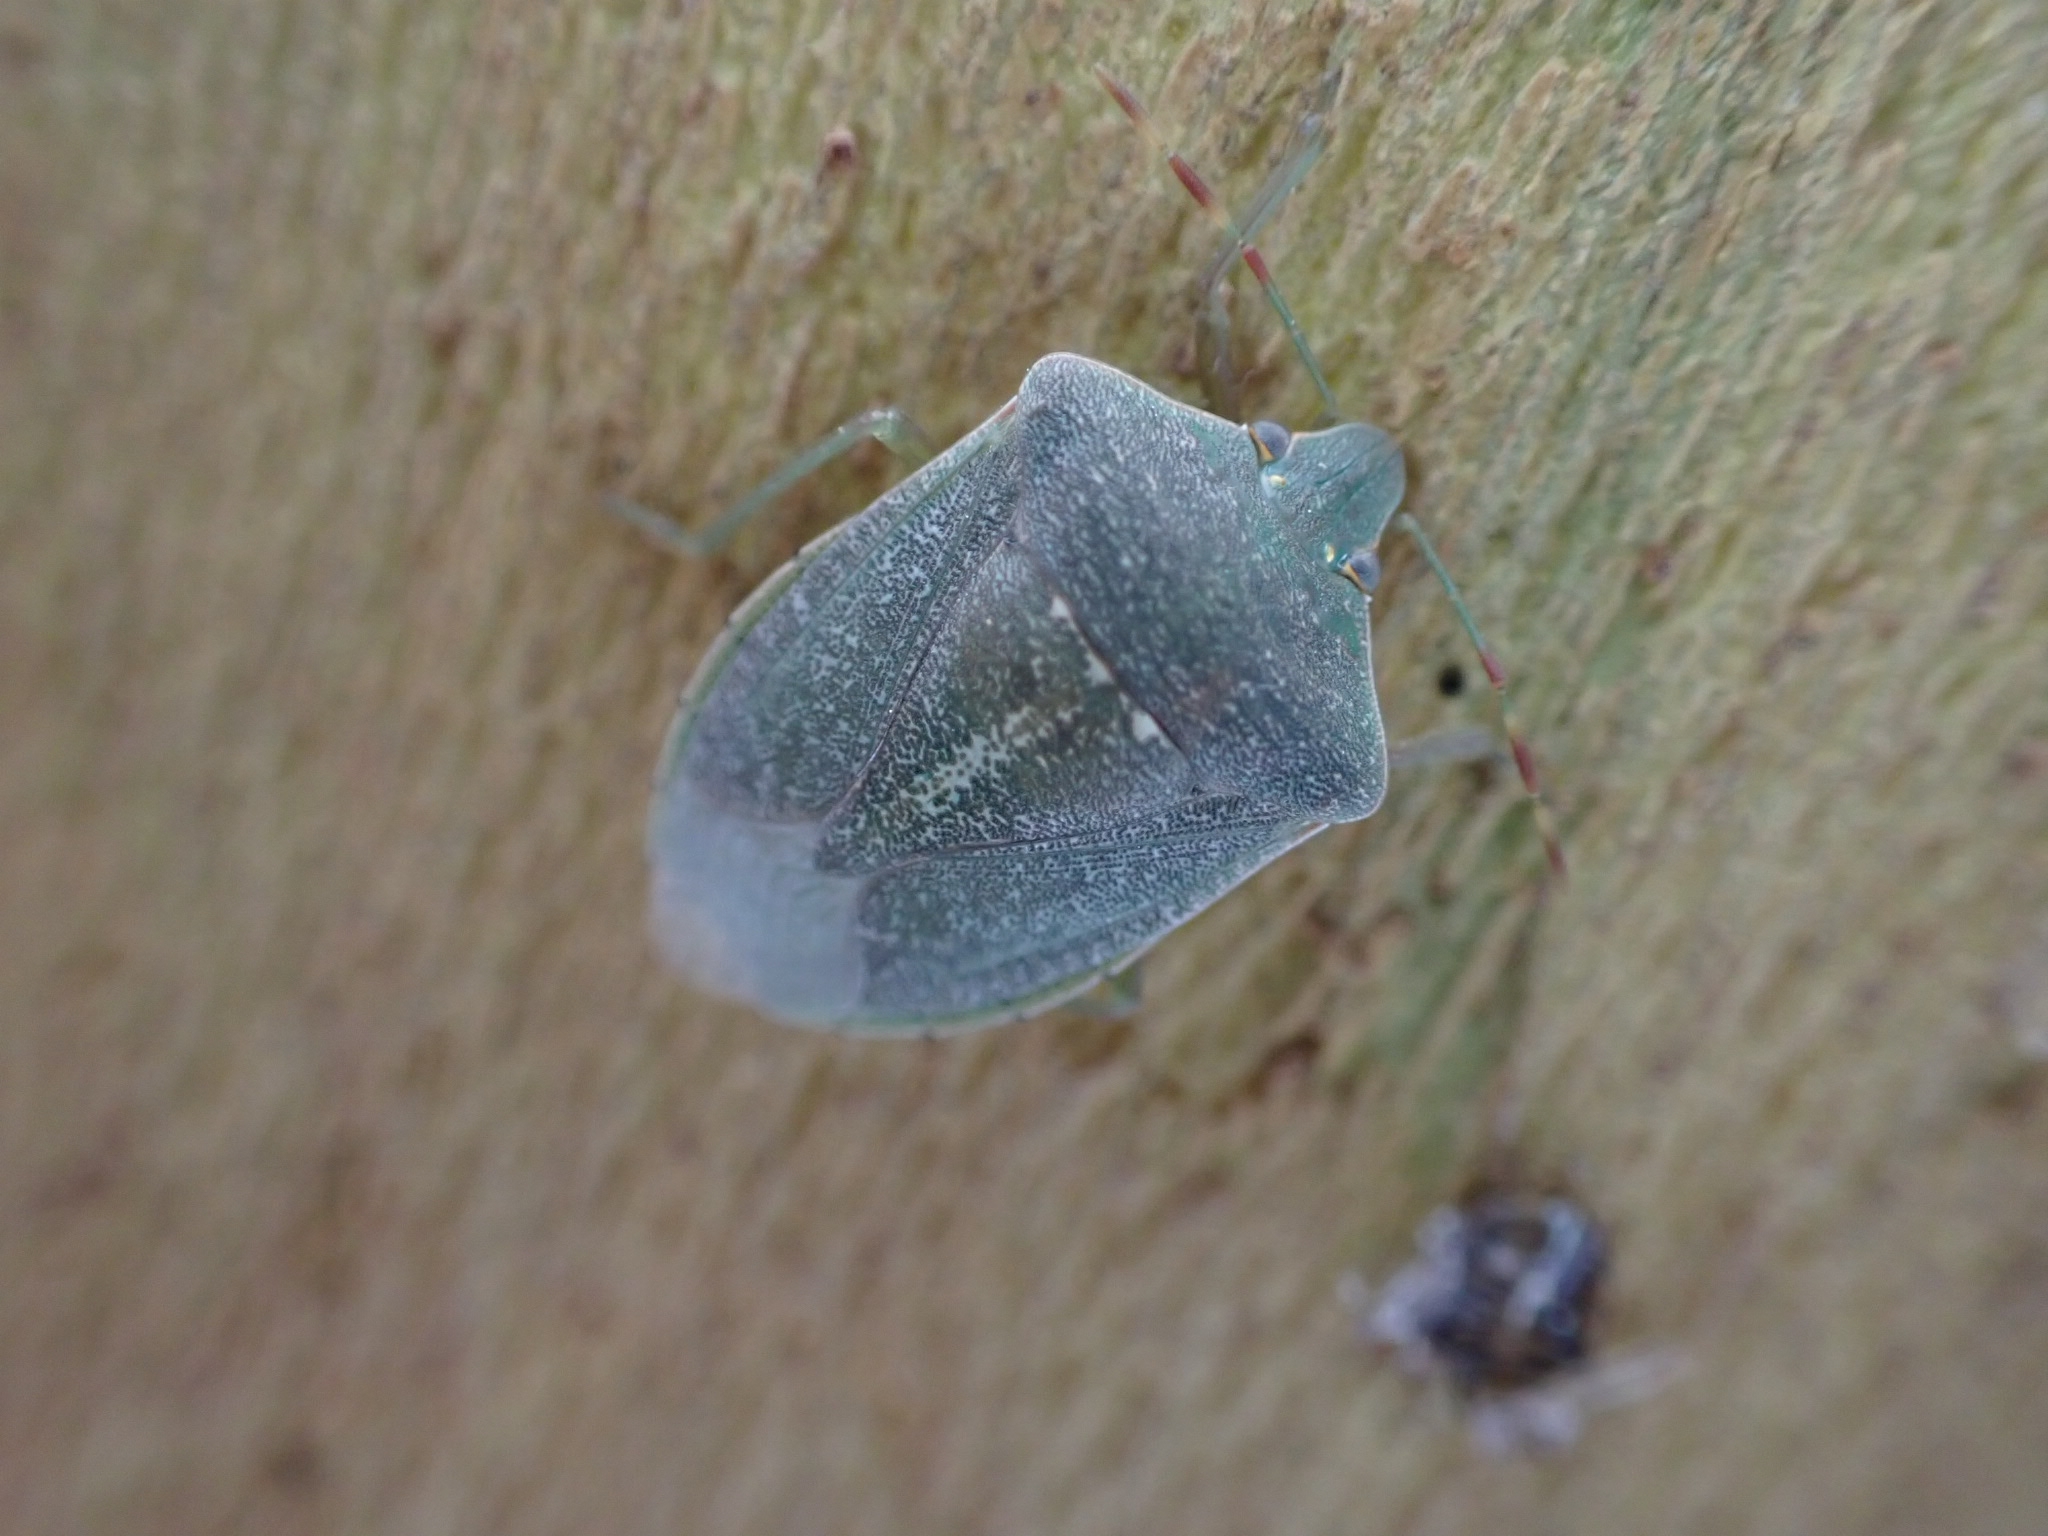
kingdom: Animalia
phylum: Arthropoda
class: Insecta
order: Hemiptera
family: Pentatomidae
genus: Nezara
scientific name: Nezara viridula
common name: Southern green stink bug
